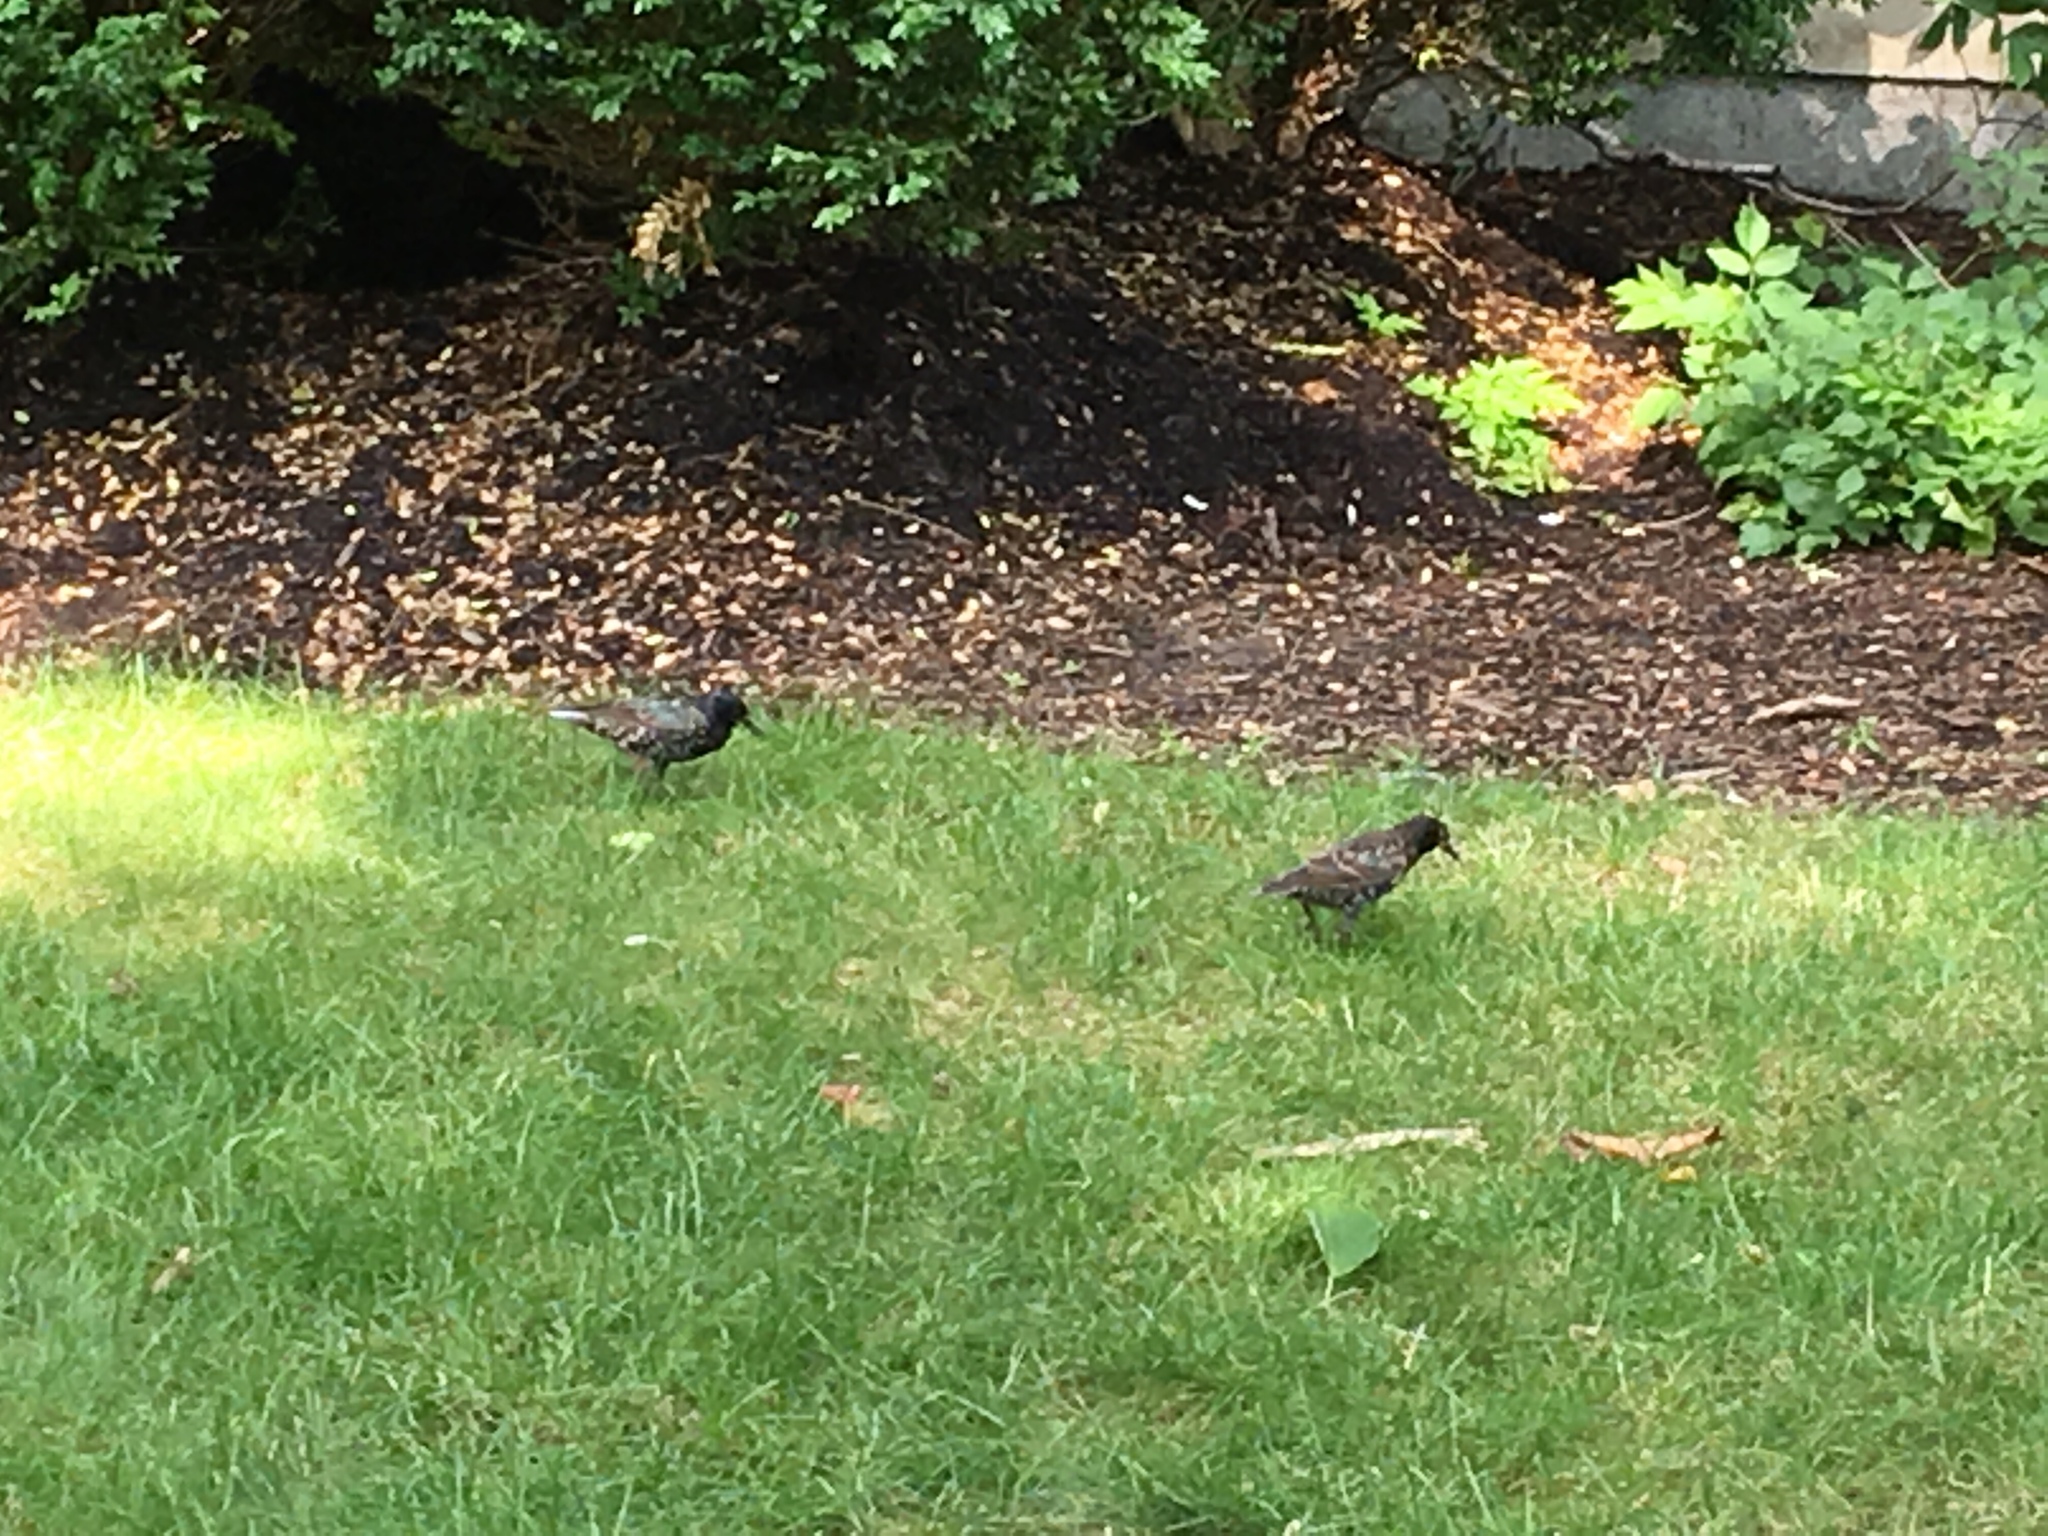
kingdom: Animalia
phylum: Chordata
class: Aves
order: Passeriformes
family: Sturnidae
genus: Sturnus
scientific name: Sturnus vulgaris
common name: Common starling
